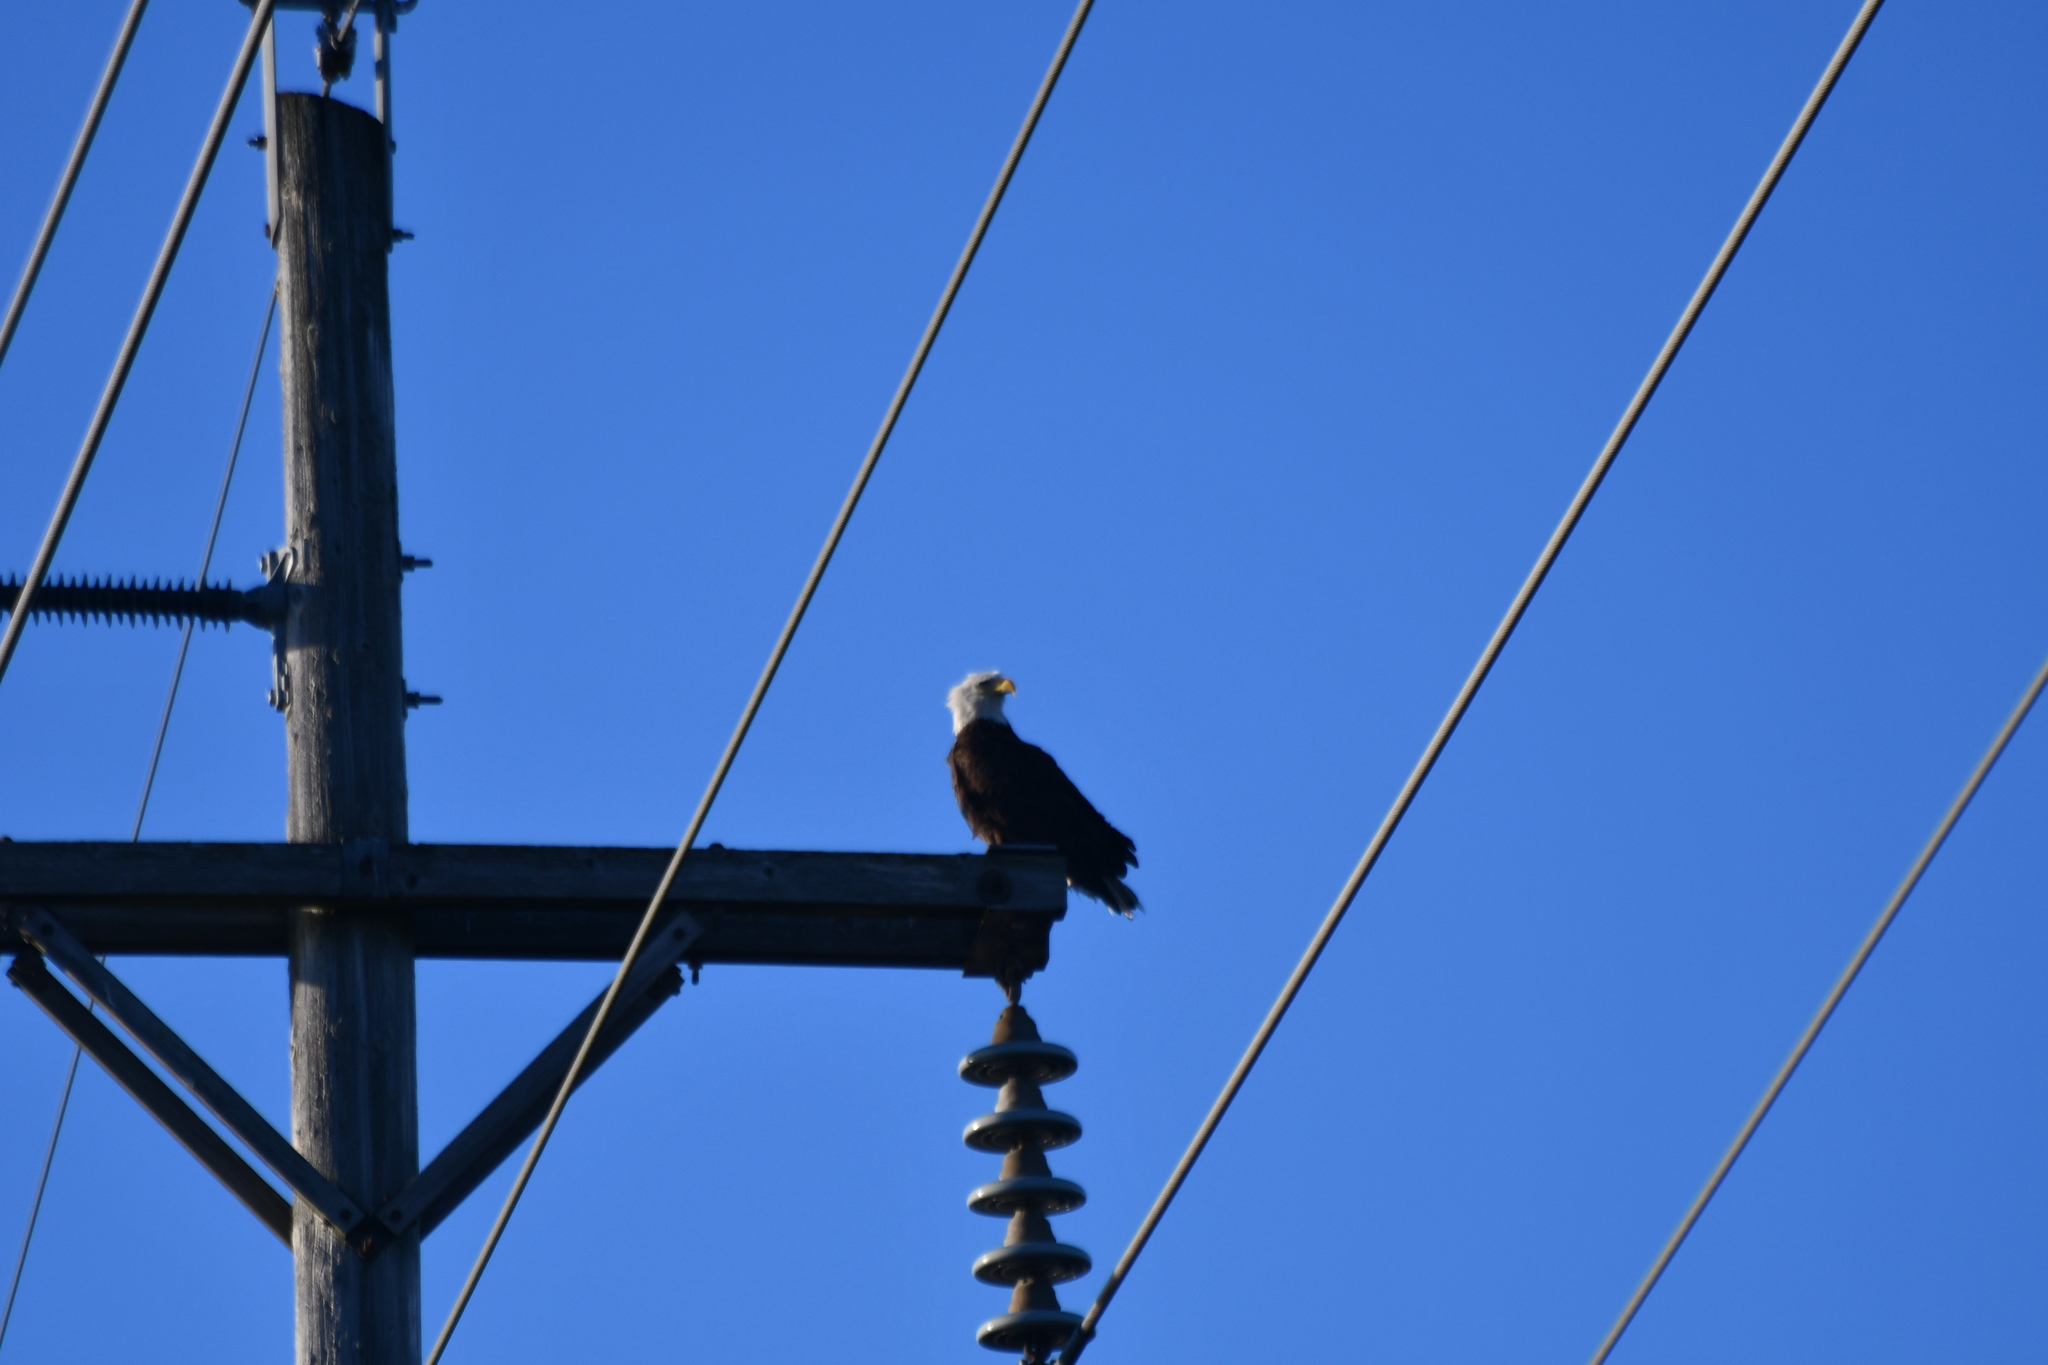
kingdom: Animalia
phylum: Chordata
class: Aves
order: Accipitriformes
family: Accipitridae
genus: Haliaeetus
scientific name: Haliaeetus leucocephalus
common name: Bald eagle
